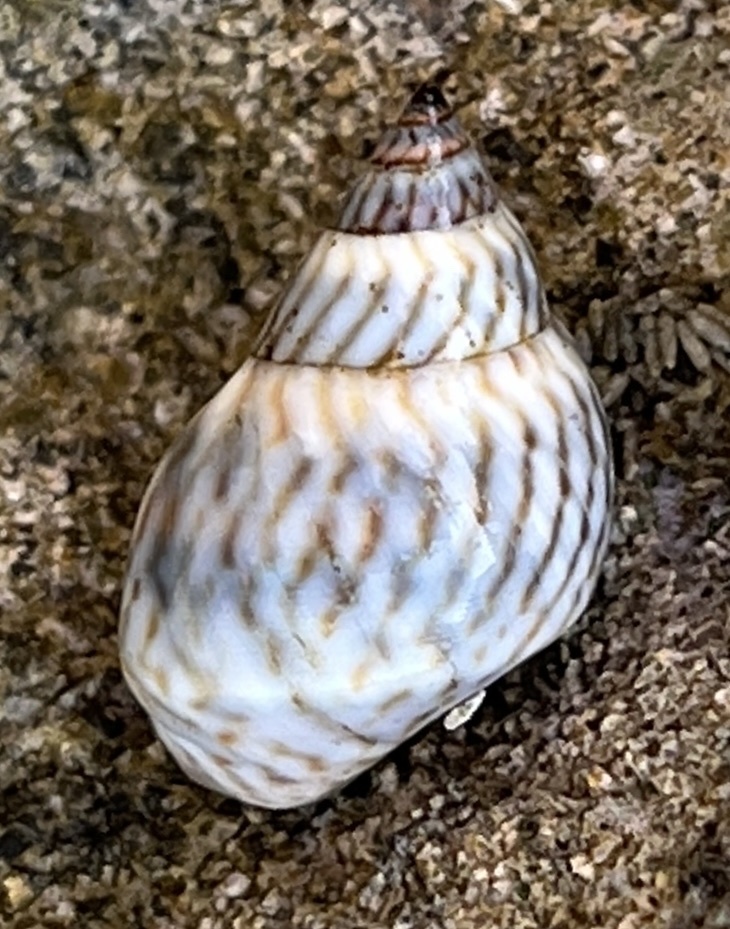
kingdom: Animalia
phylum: Mollusca
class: Gastropoda
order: Littorinimorpha
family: Littorinidae
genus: Echinolittorina
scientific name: Echinolittorina ziczac
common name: Zebra periwinkle
